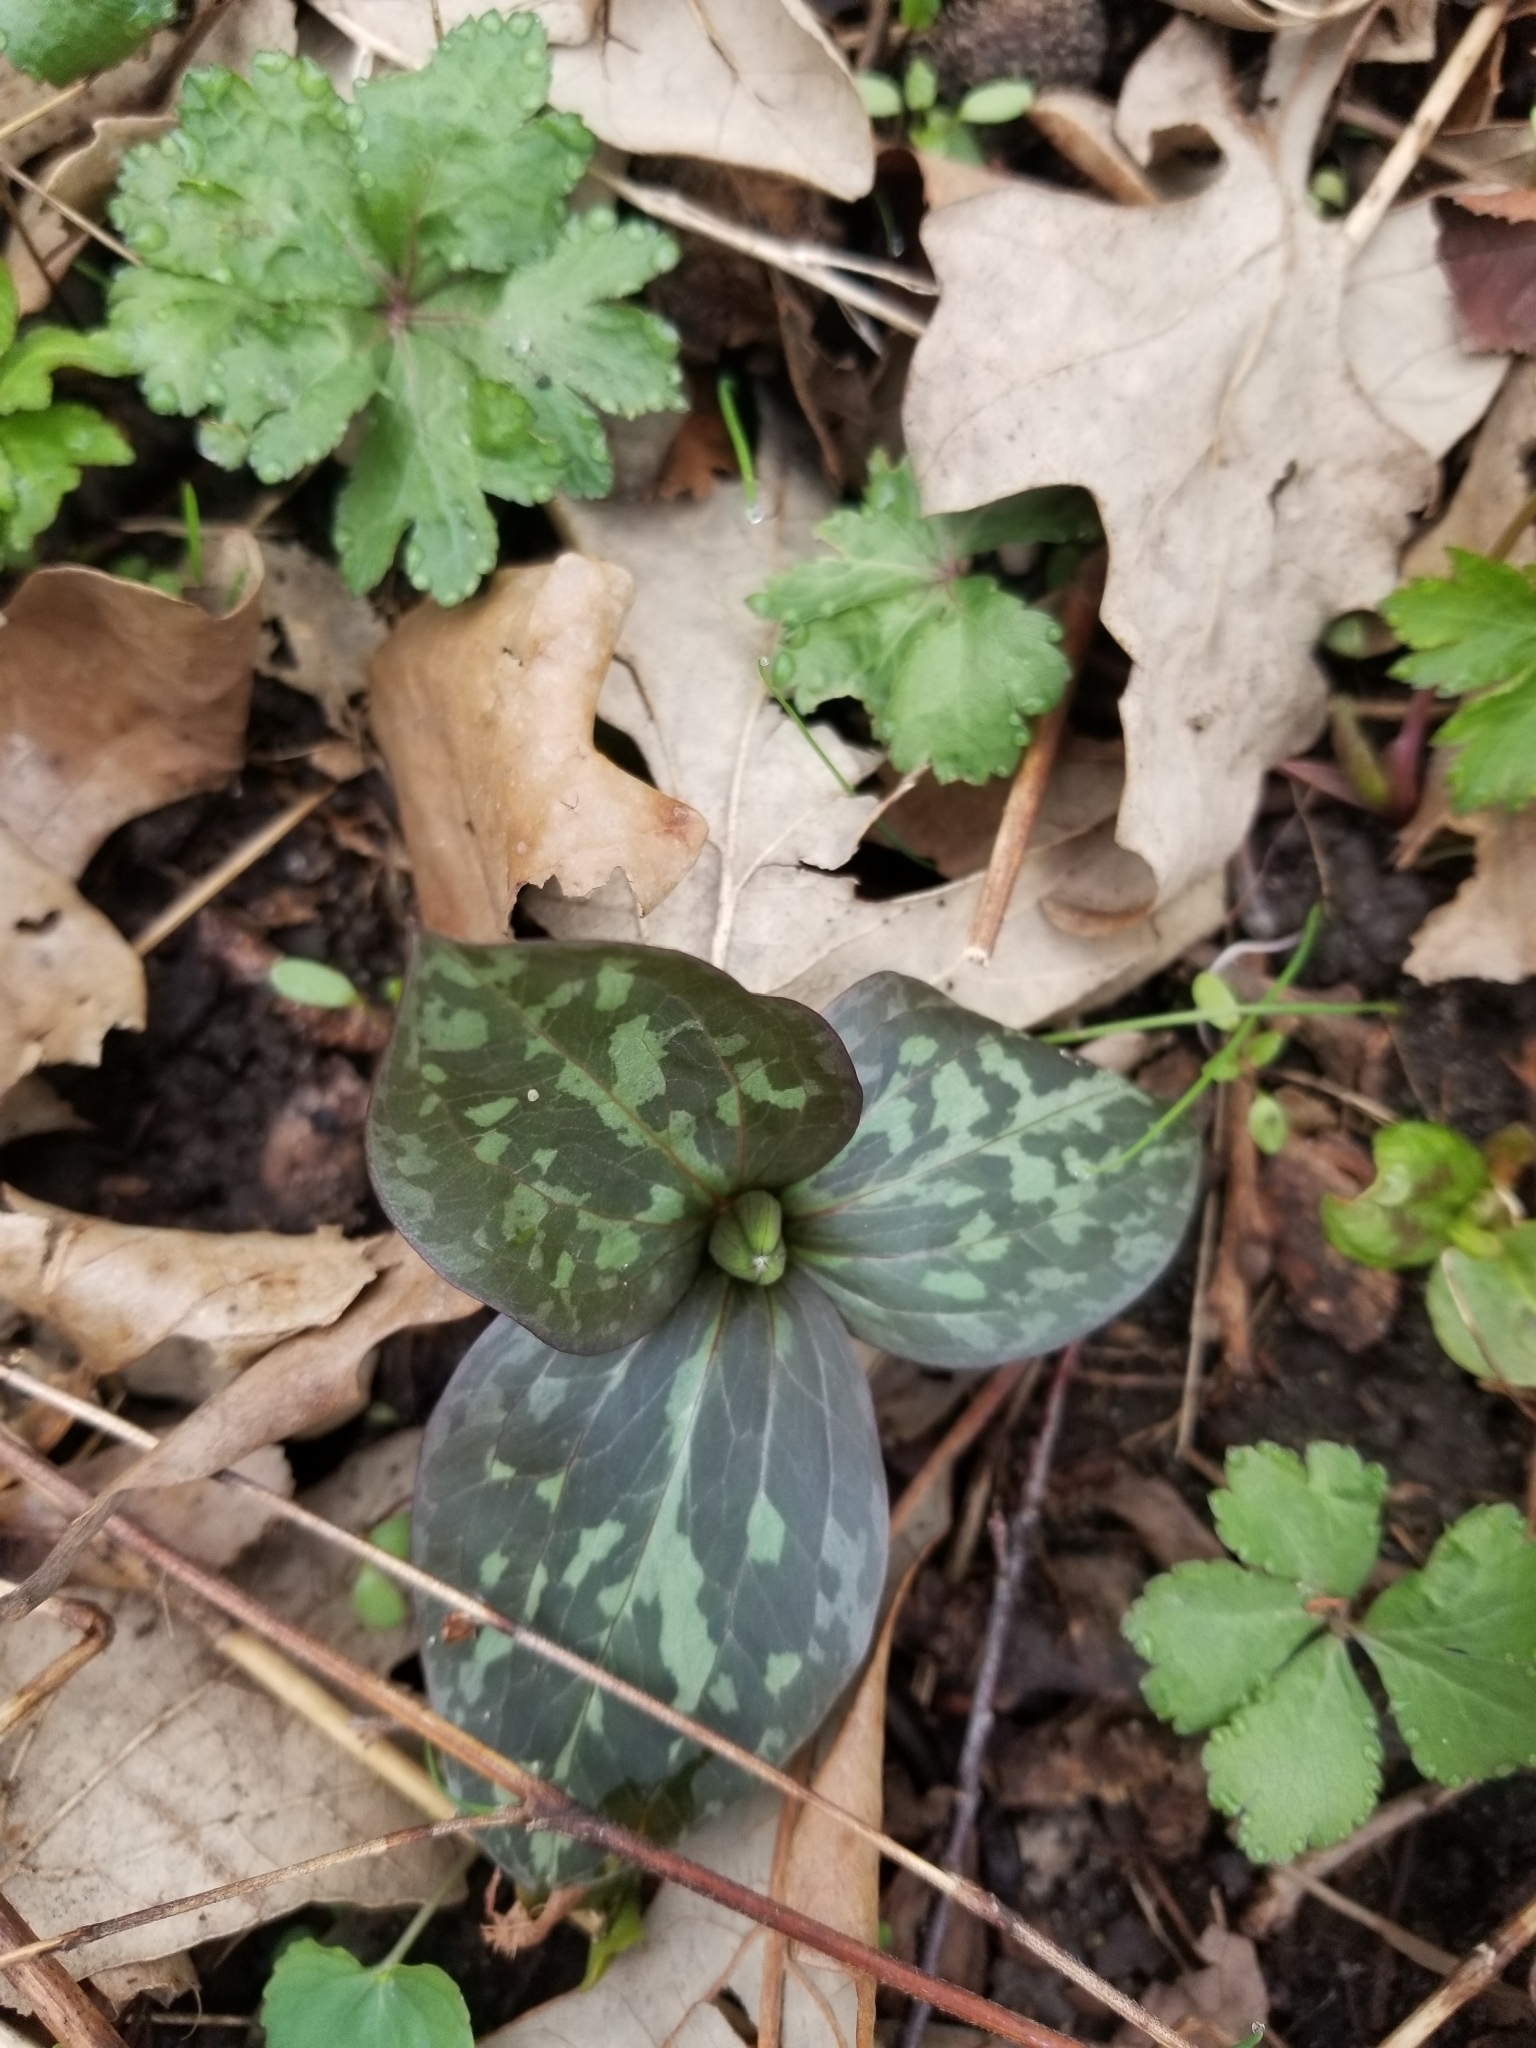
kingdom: Plantae
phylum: Tracheophyta
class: Liliopsida
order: Liliales
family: Melanthiaceae
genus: Trillium
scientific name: Trillium recurvatum
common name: Bloody butcher
